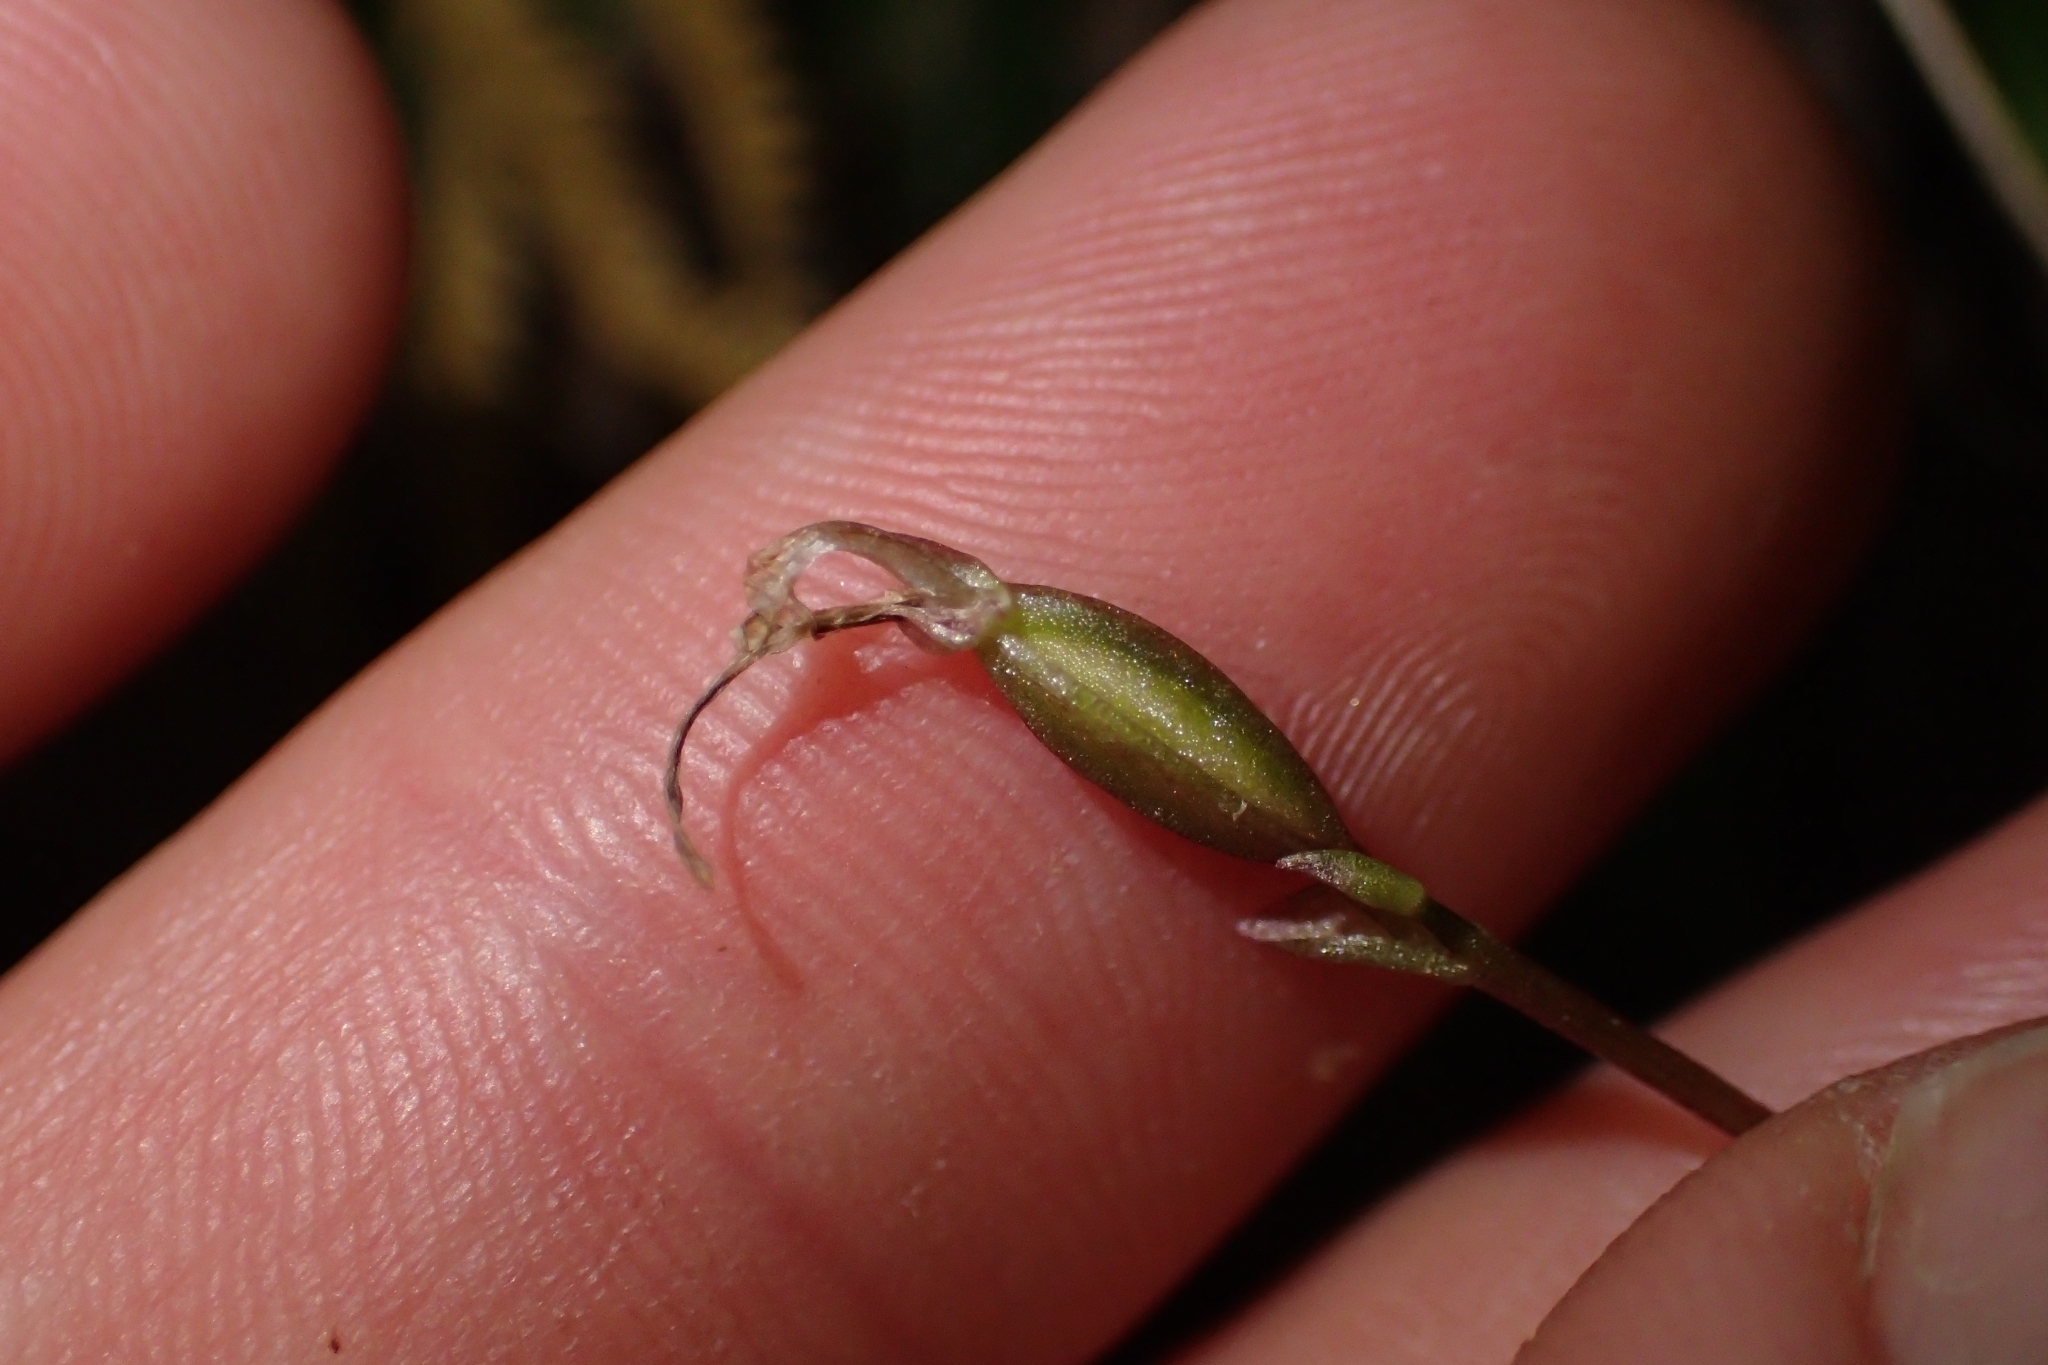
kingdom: Plantae
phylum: Tracheophyta
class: Liliopsida
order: Asparagales
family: Orchidaceae
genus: Cyrtostylis
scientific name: Cyrtostylis rotundifolia
